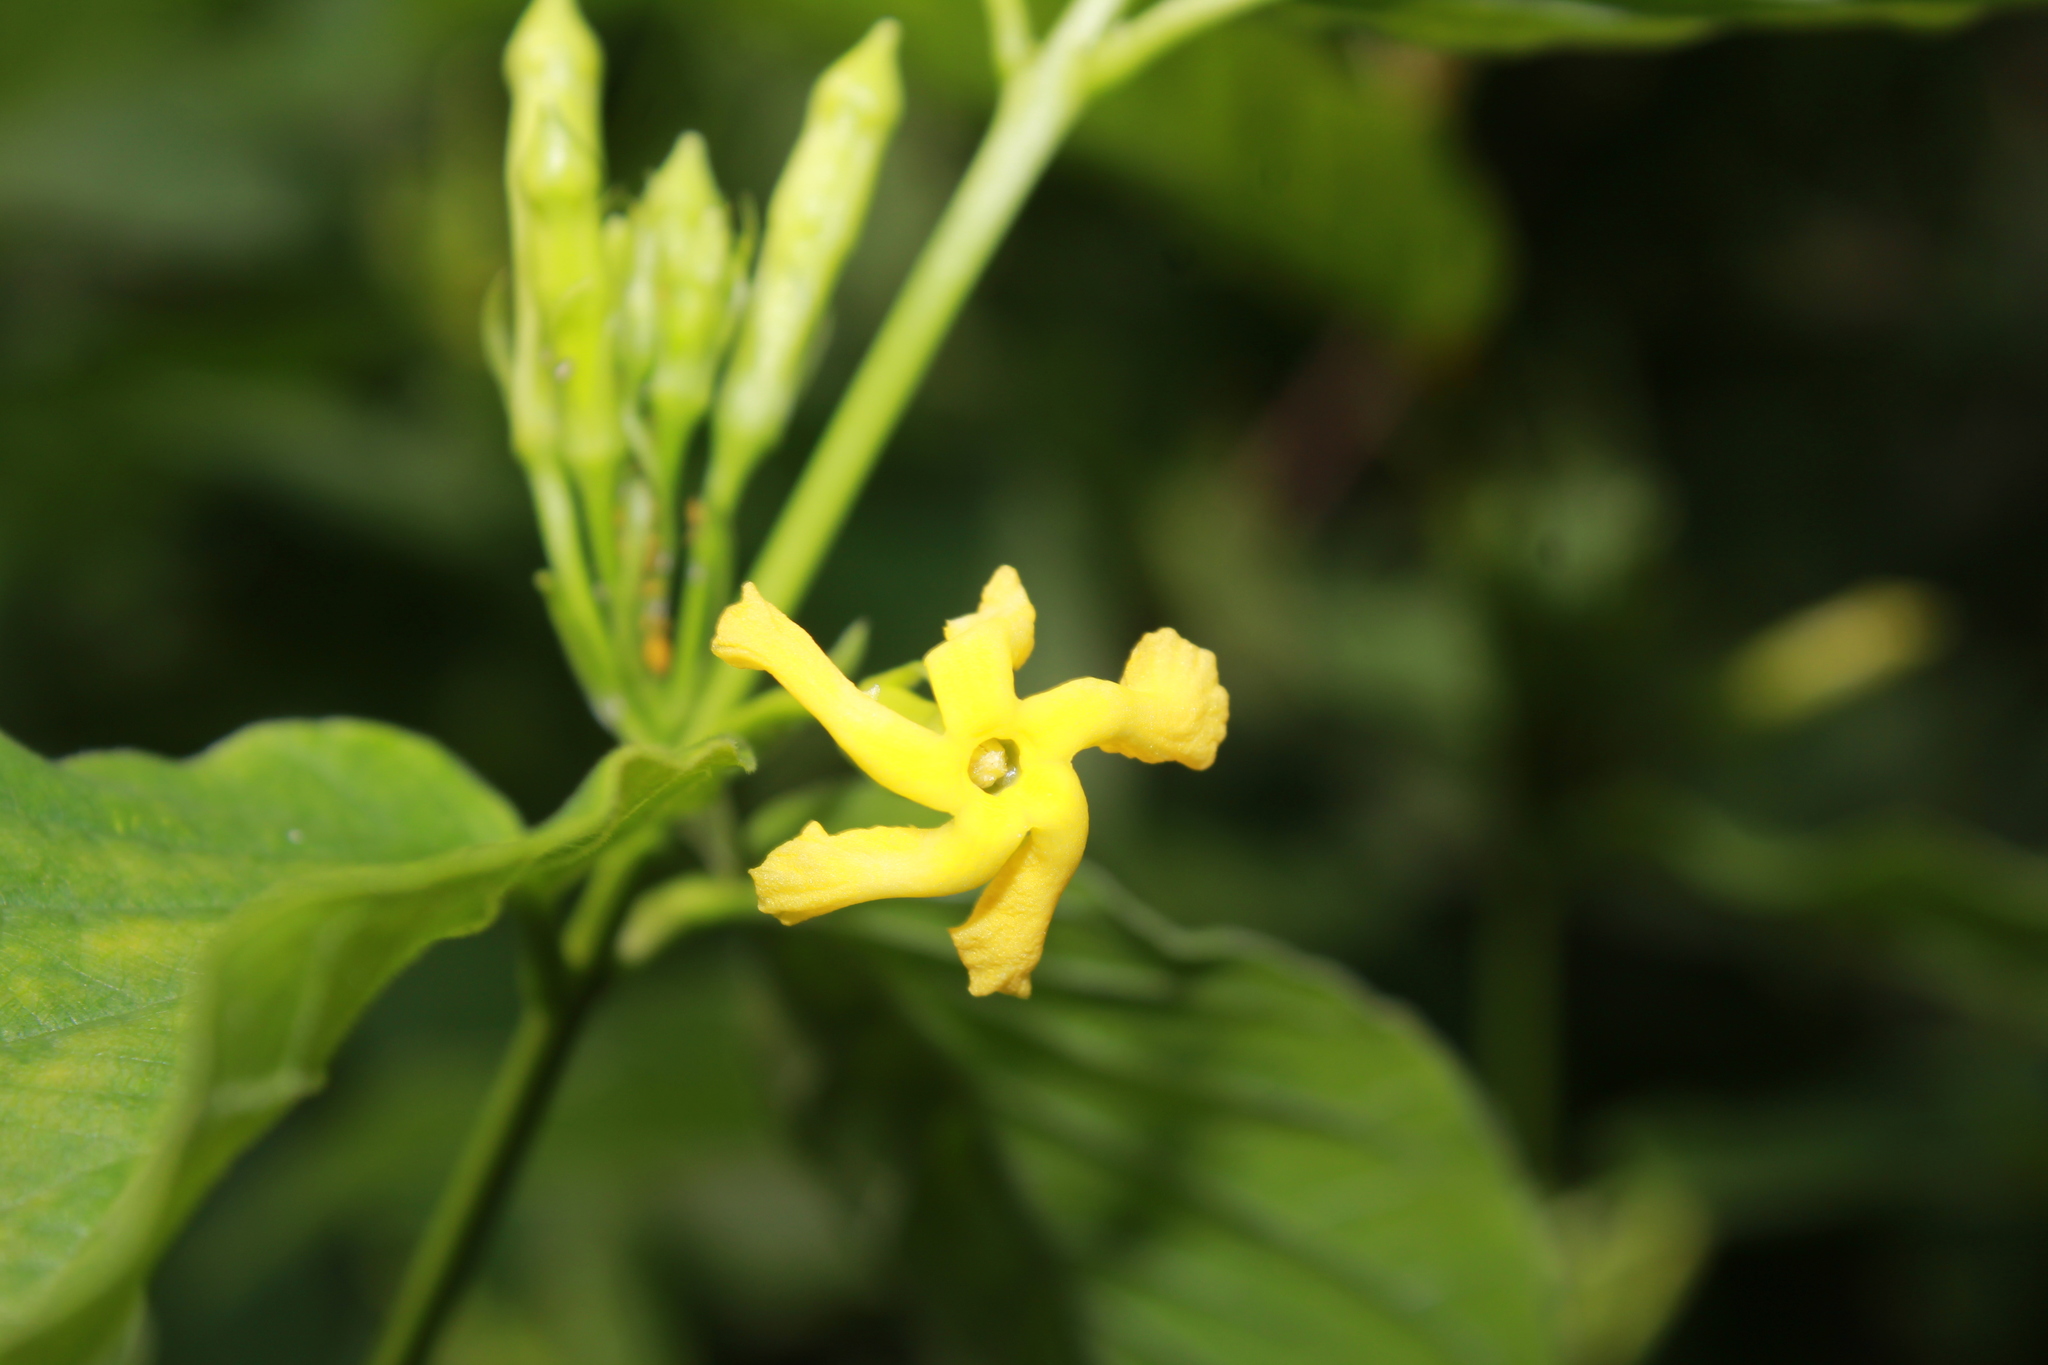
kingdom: Plantae
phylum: Tracheophyta
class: Magnoliopsida
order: Gentianales
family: Apocynaceae
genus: Mandevilla
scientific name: Mandevilla foliosa
